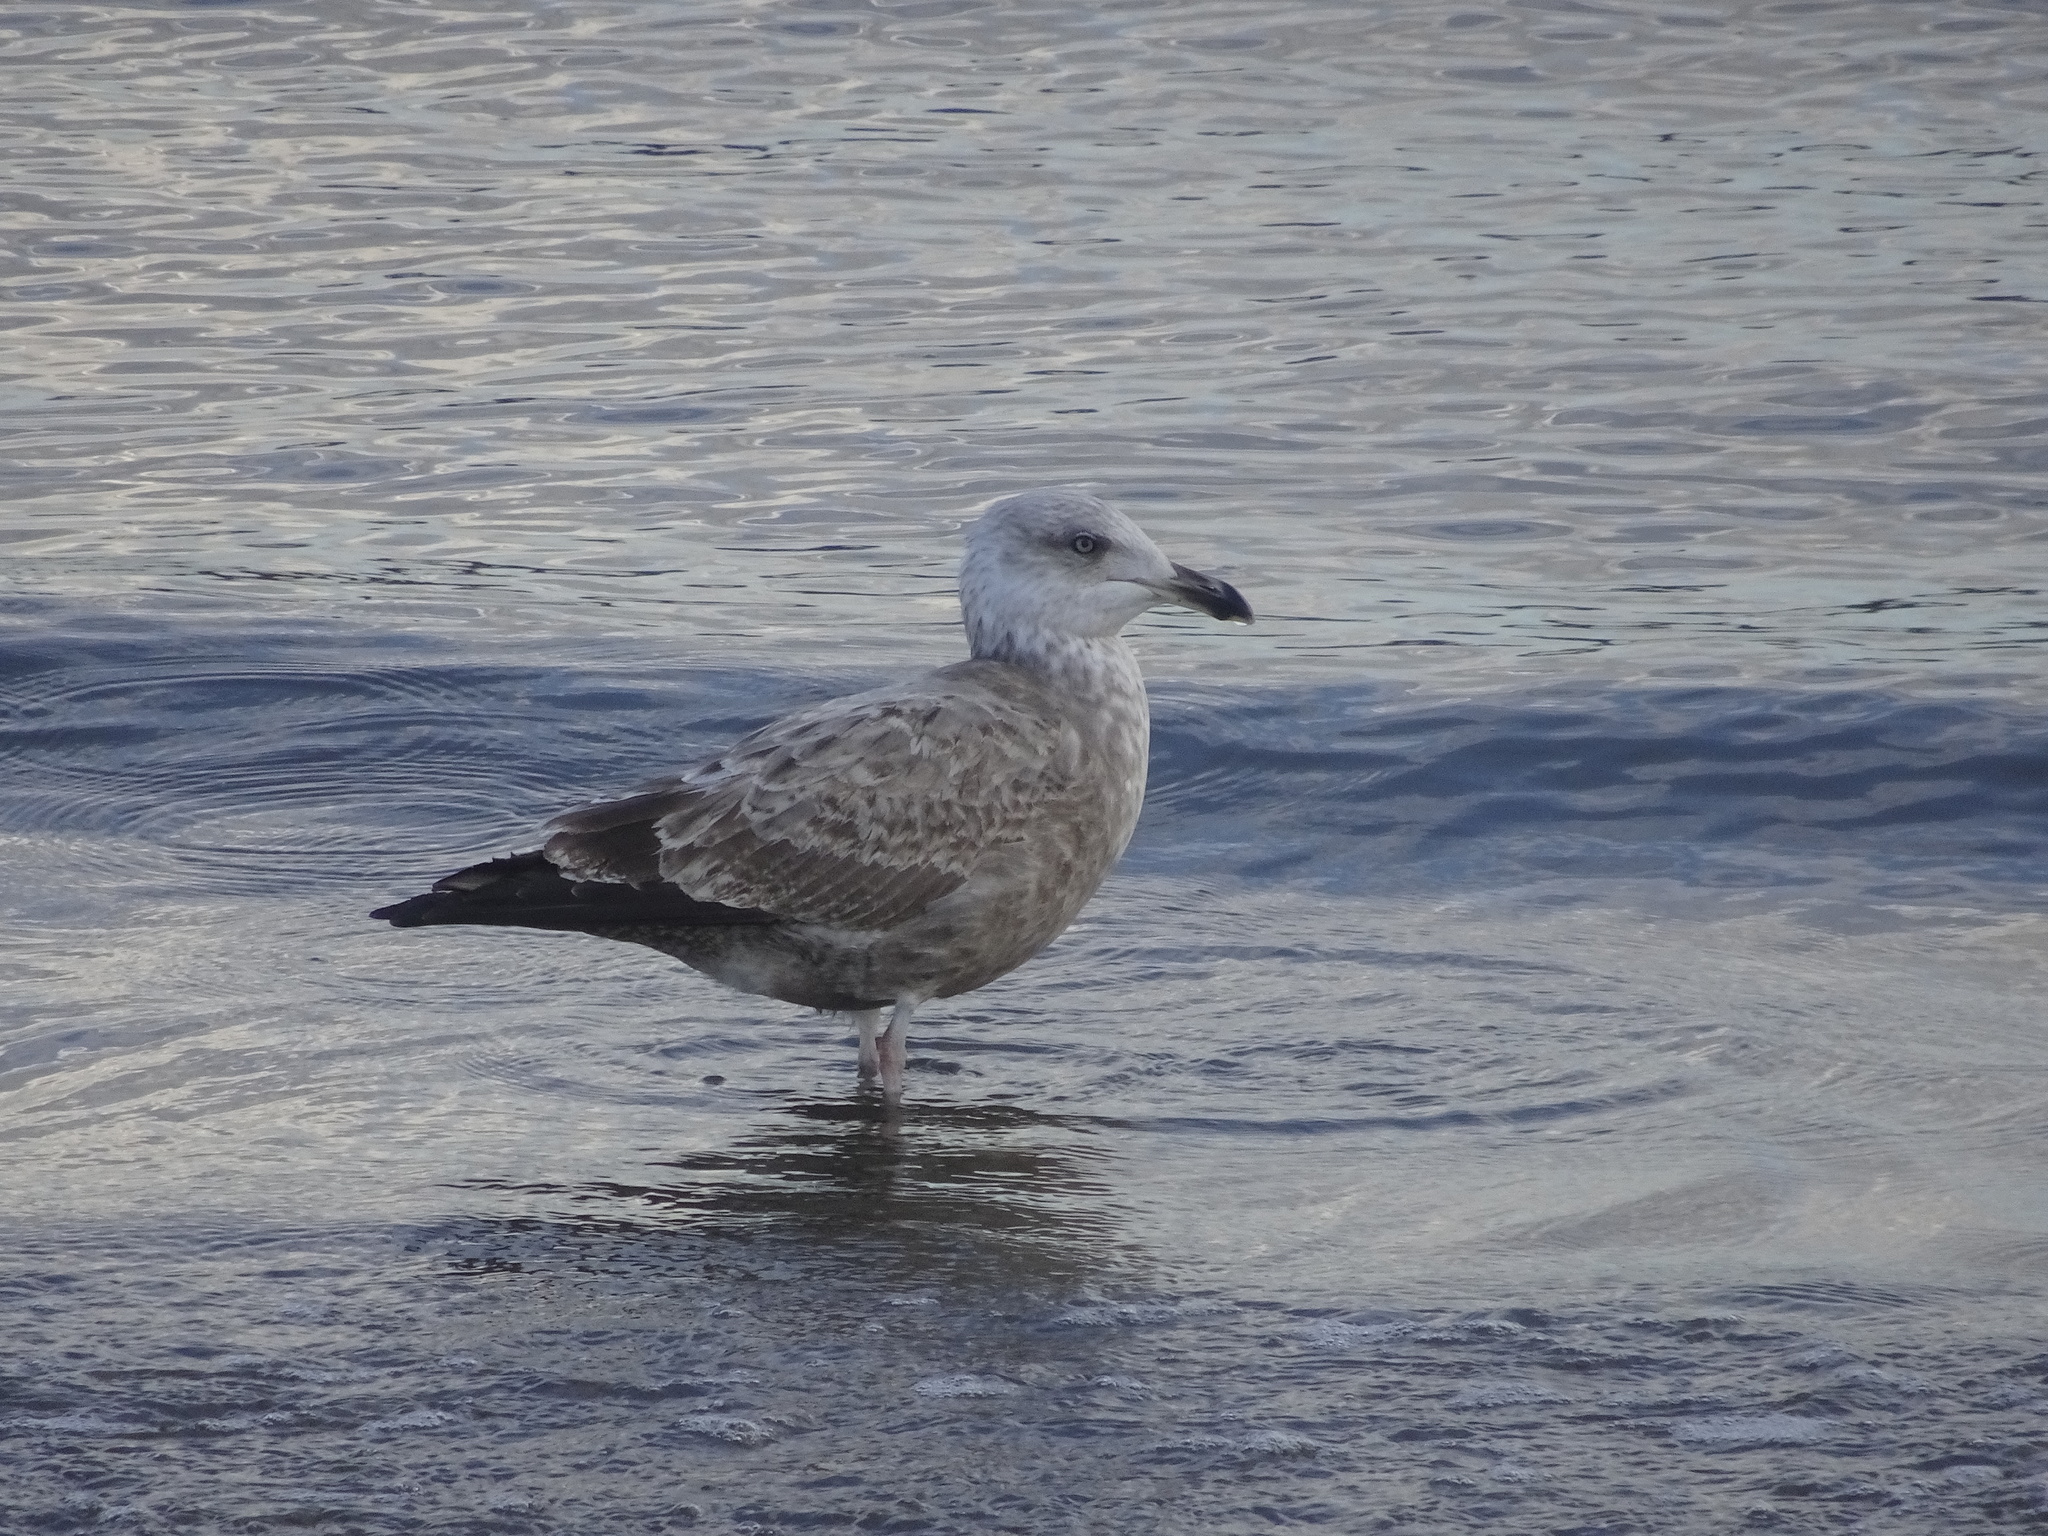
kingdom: Animalia
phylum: Chordata
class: Aves
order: Charadriiformes
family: Laridae
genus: Larus
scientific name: Larus argentatus
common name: Herring gull
